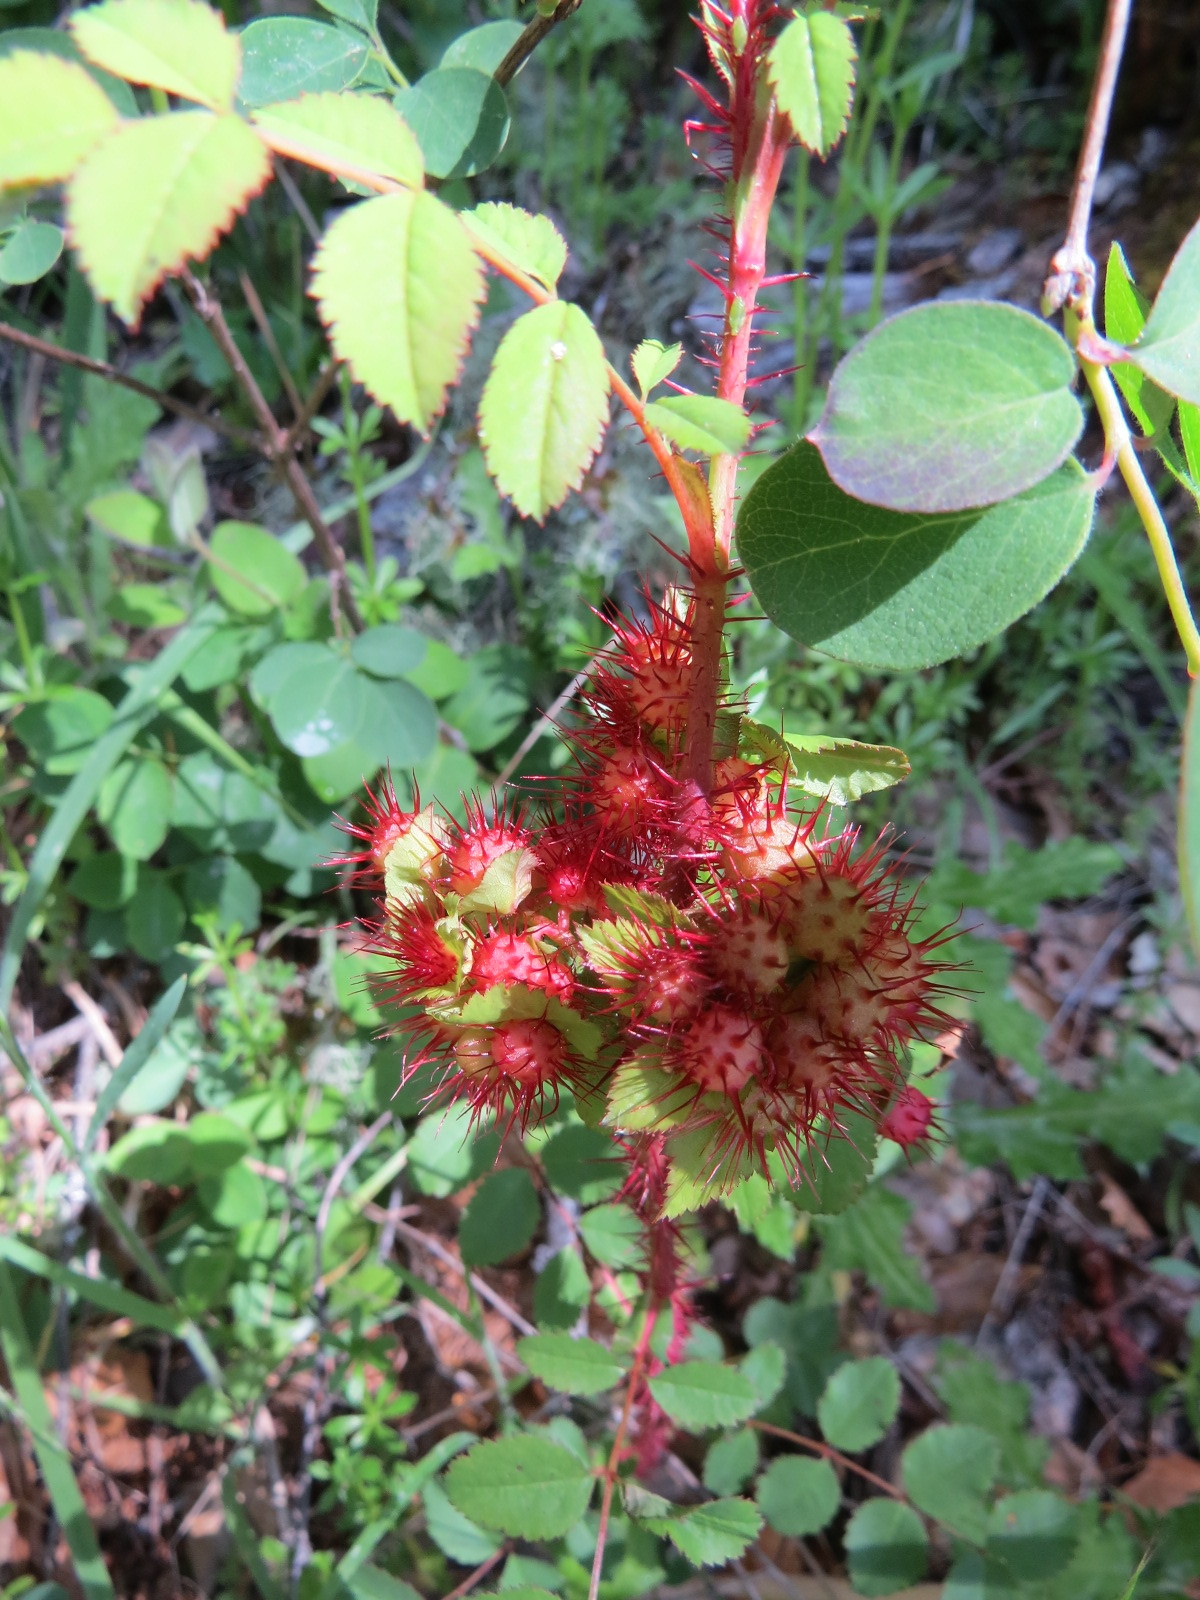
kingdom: Animalia
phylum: Arthropoda
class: Insecta
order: Hymenoptera
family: Cynipidae
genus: Diplolepis
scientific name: Diplolepis polita
